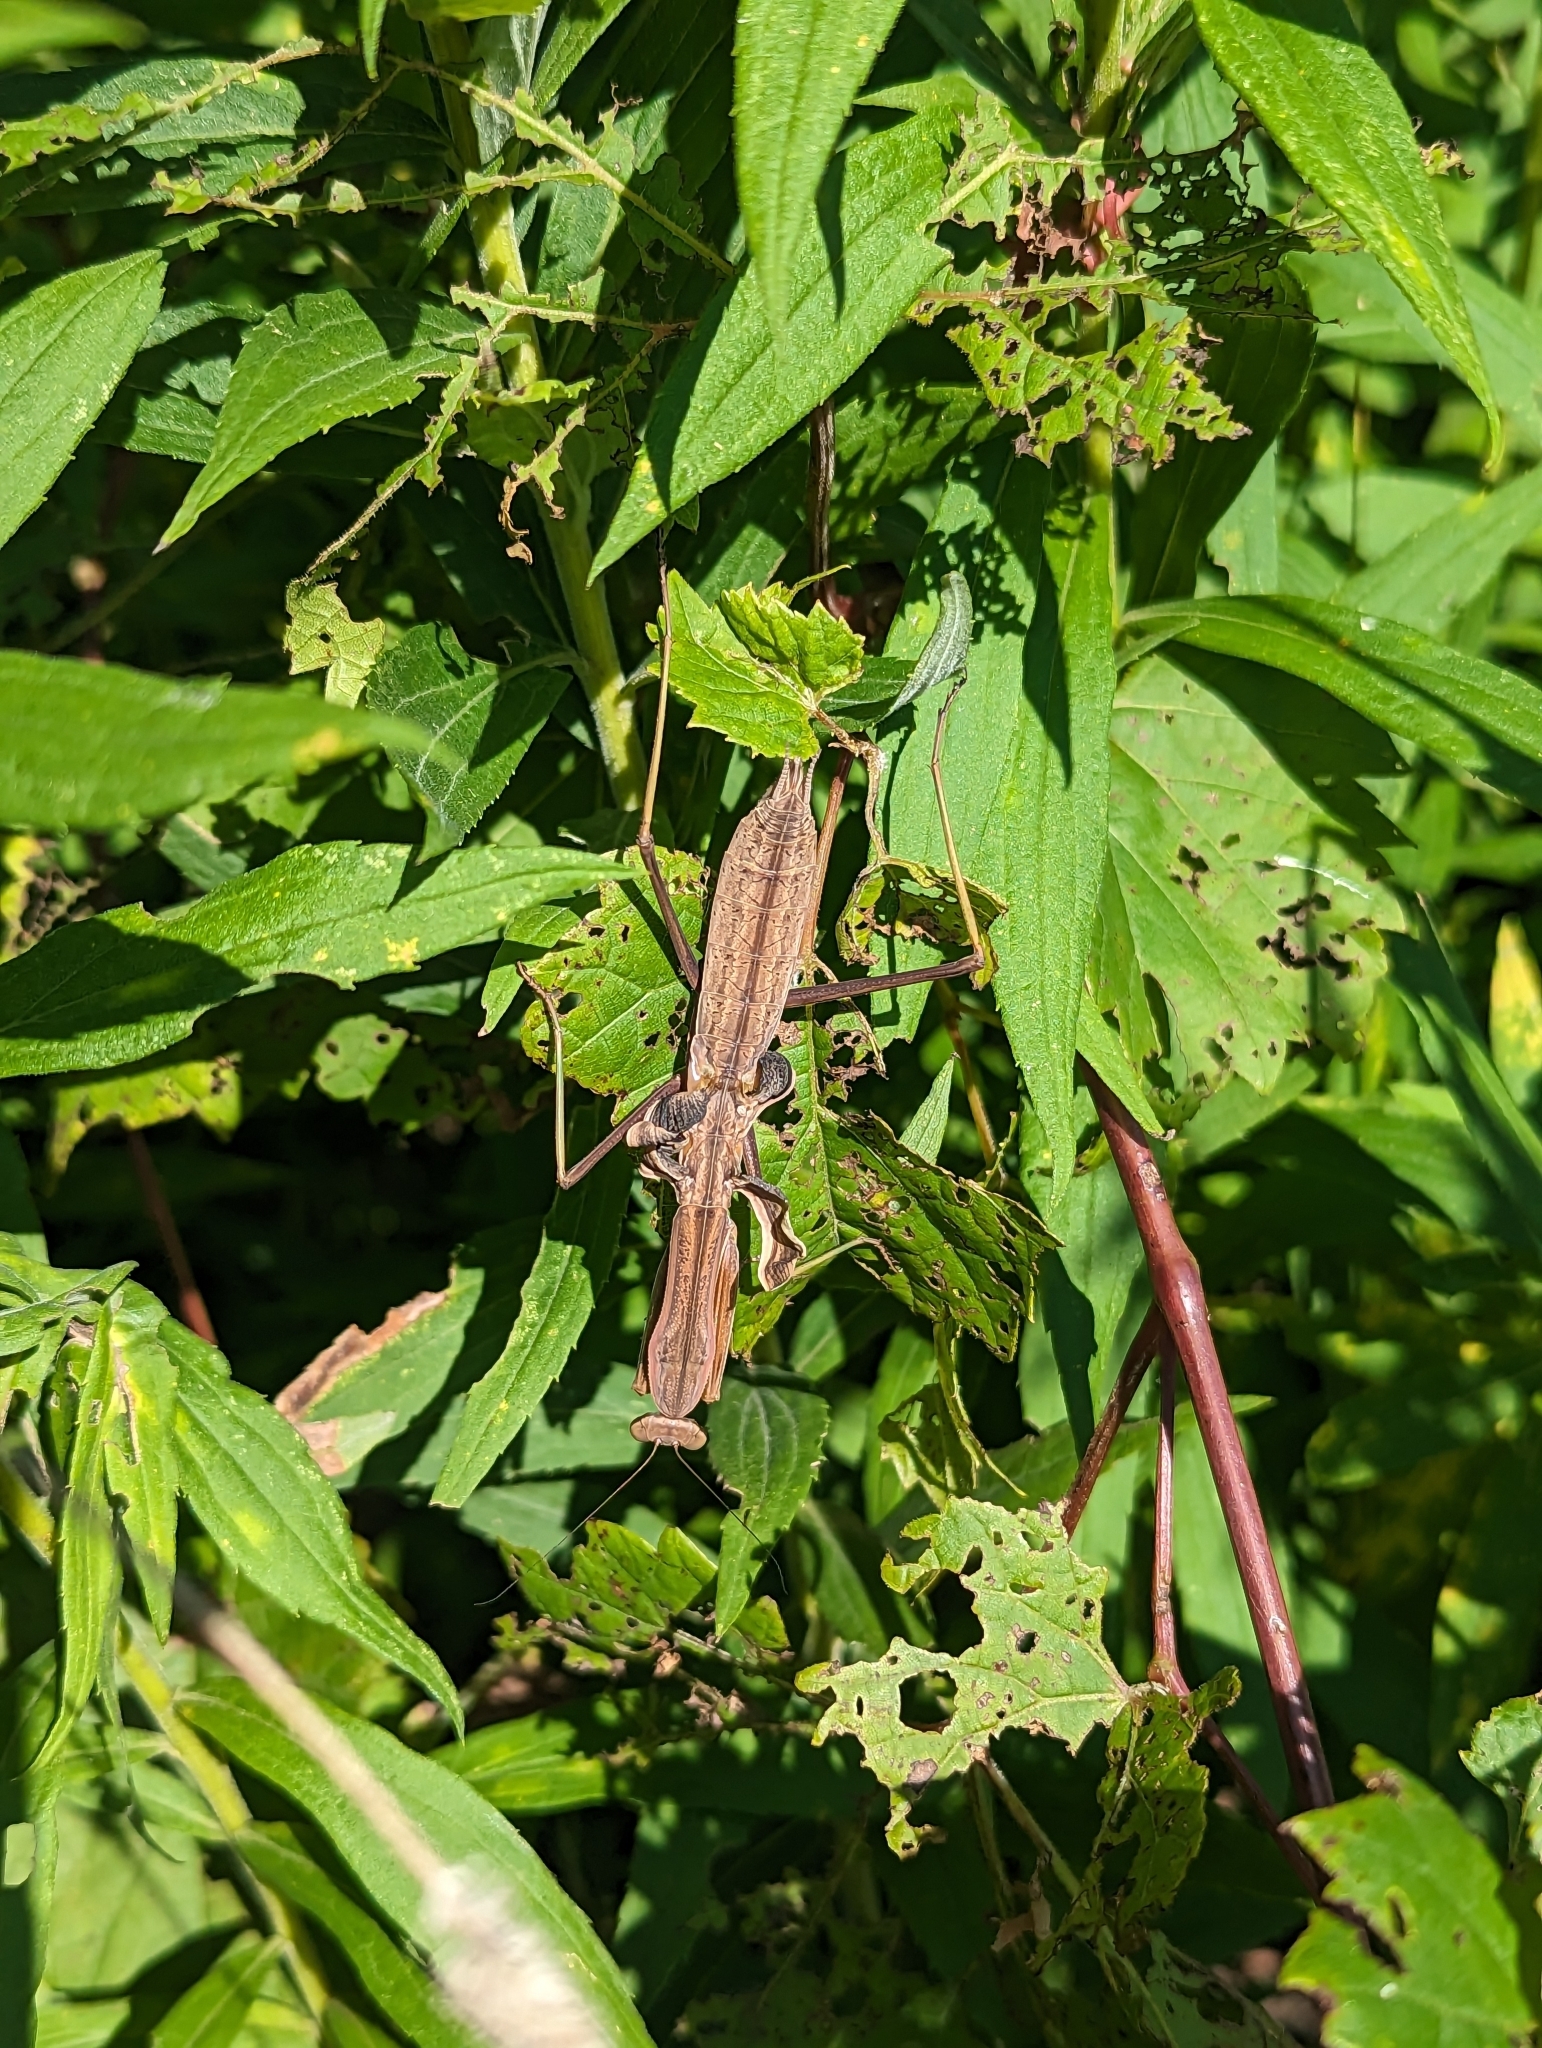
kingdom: Animalia
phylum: Arthropoda
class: Insecta
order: Mantodea
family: Mantidae
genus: Tenodera
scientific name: Tenodera sinensis
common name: Chinese mantis
